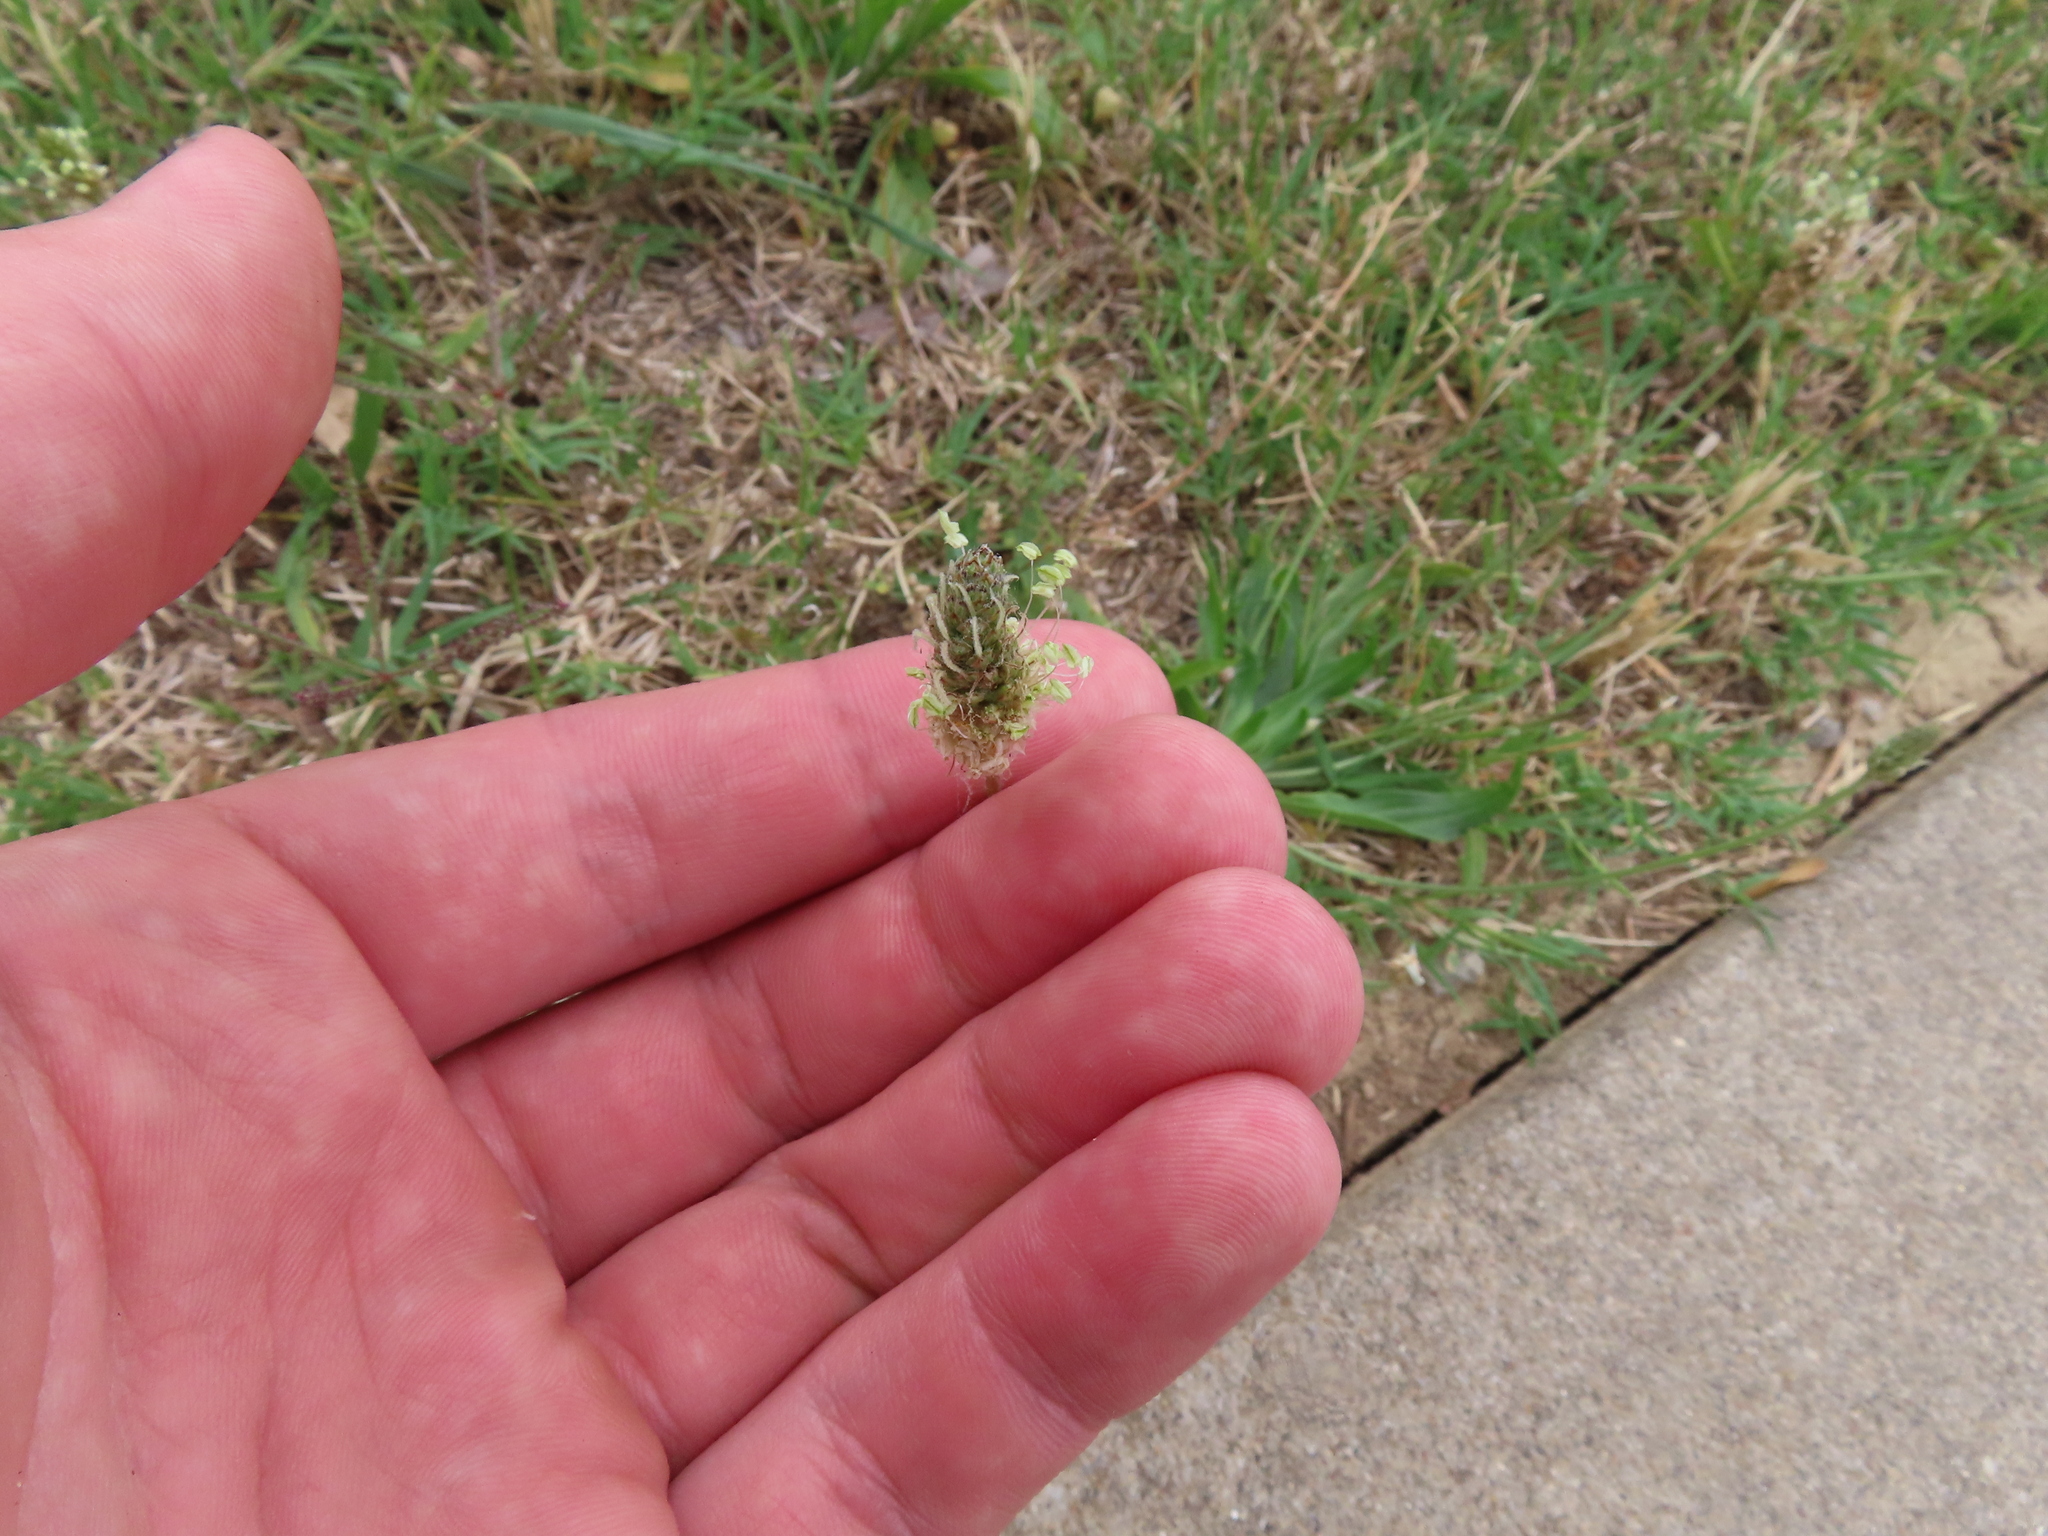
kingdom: Plantae
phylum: Tracheophyta
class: Magnoliopsida
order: Lamiales
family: Plantaginaceae
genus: Plantago
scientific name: Plantago lanceolata
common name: Ribwort plantain
